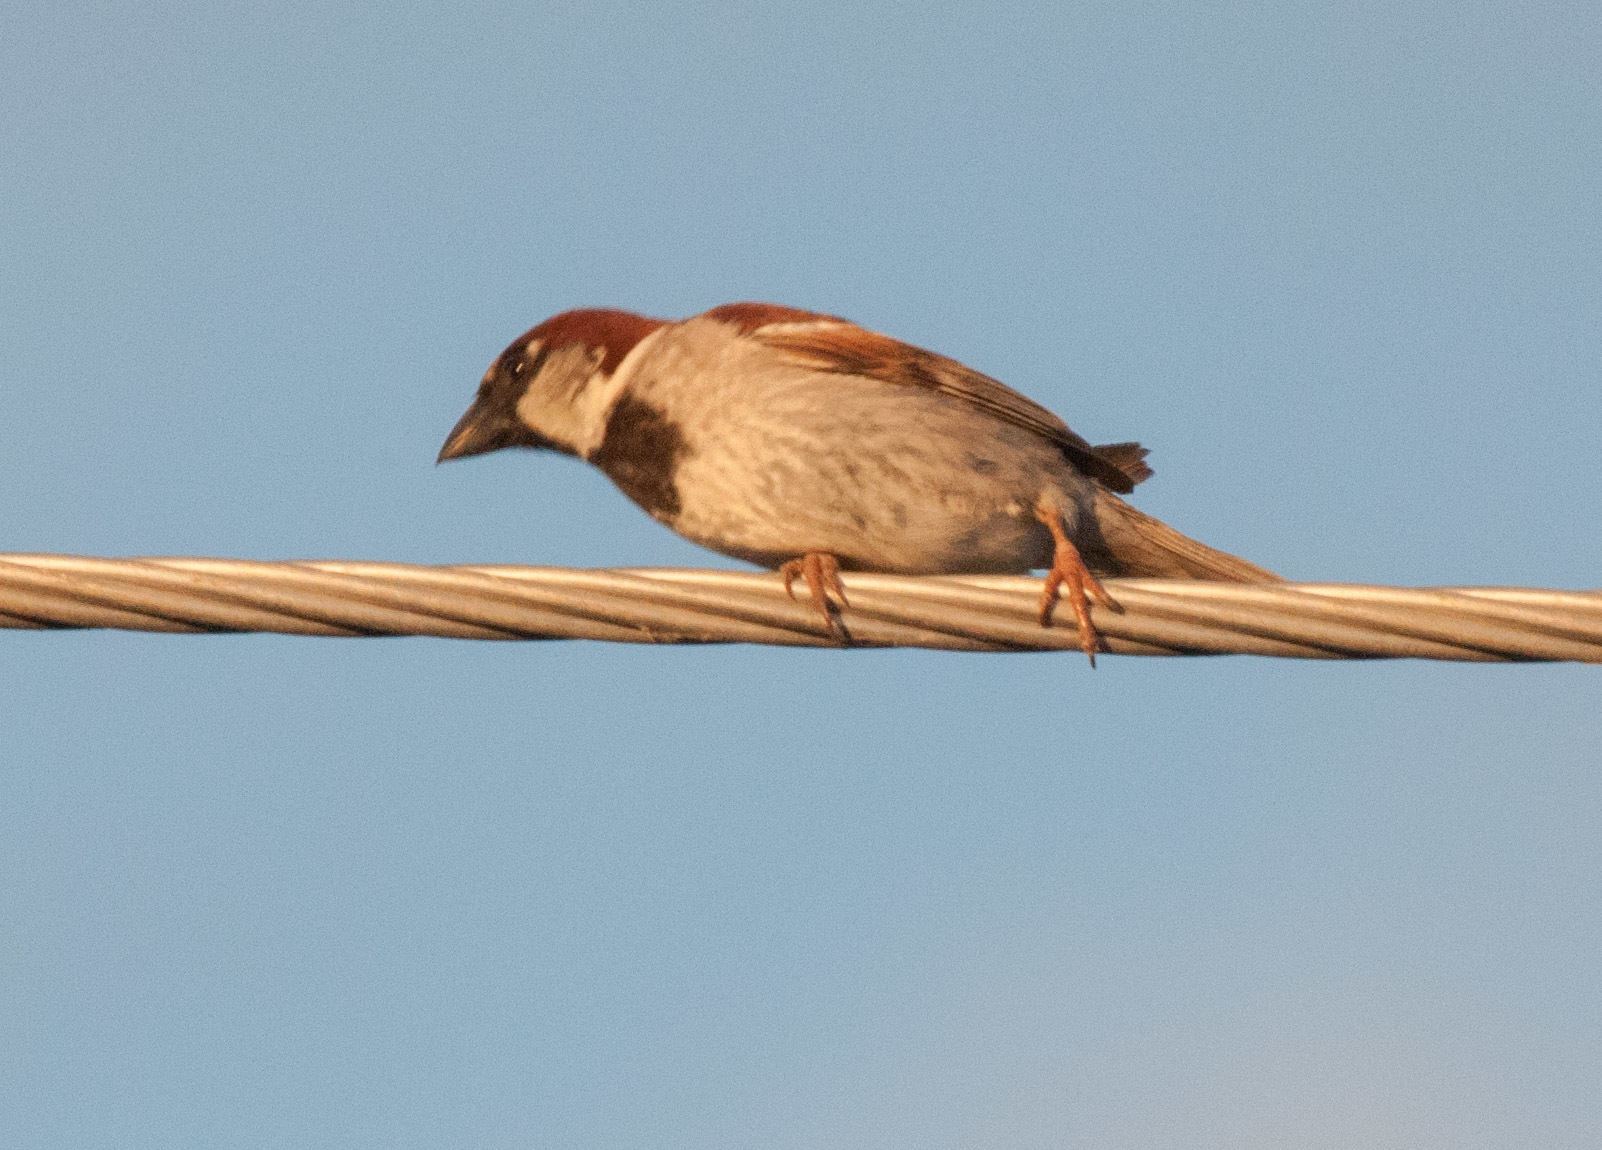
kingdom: Animalia
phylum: Chordata
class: Aves
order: Passeriformes
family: Passeridae
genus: Passer
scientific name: Passer domesticus
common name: House sparrow
